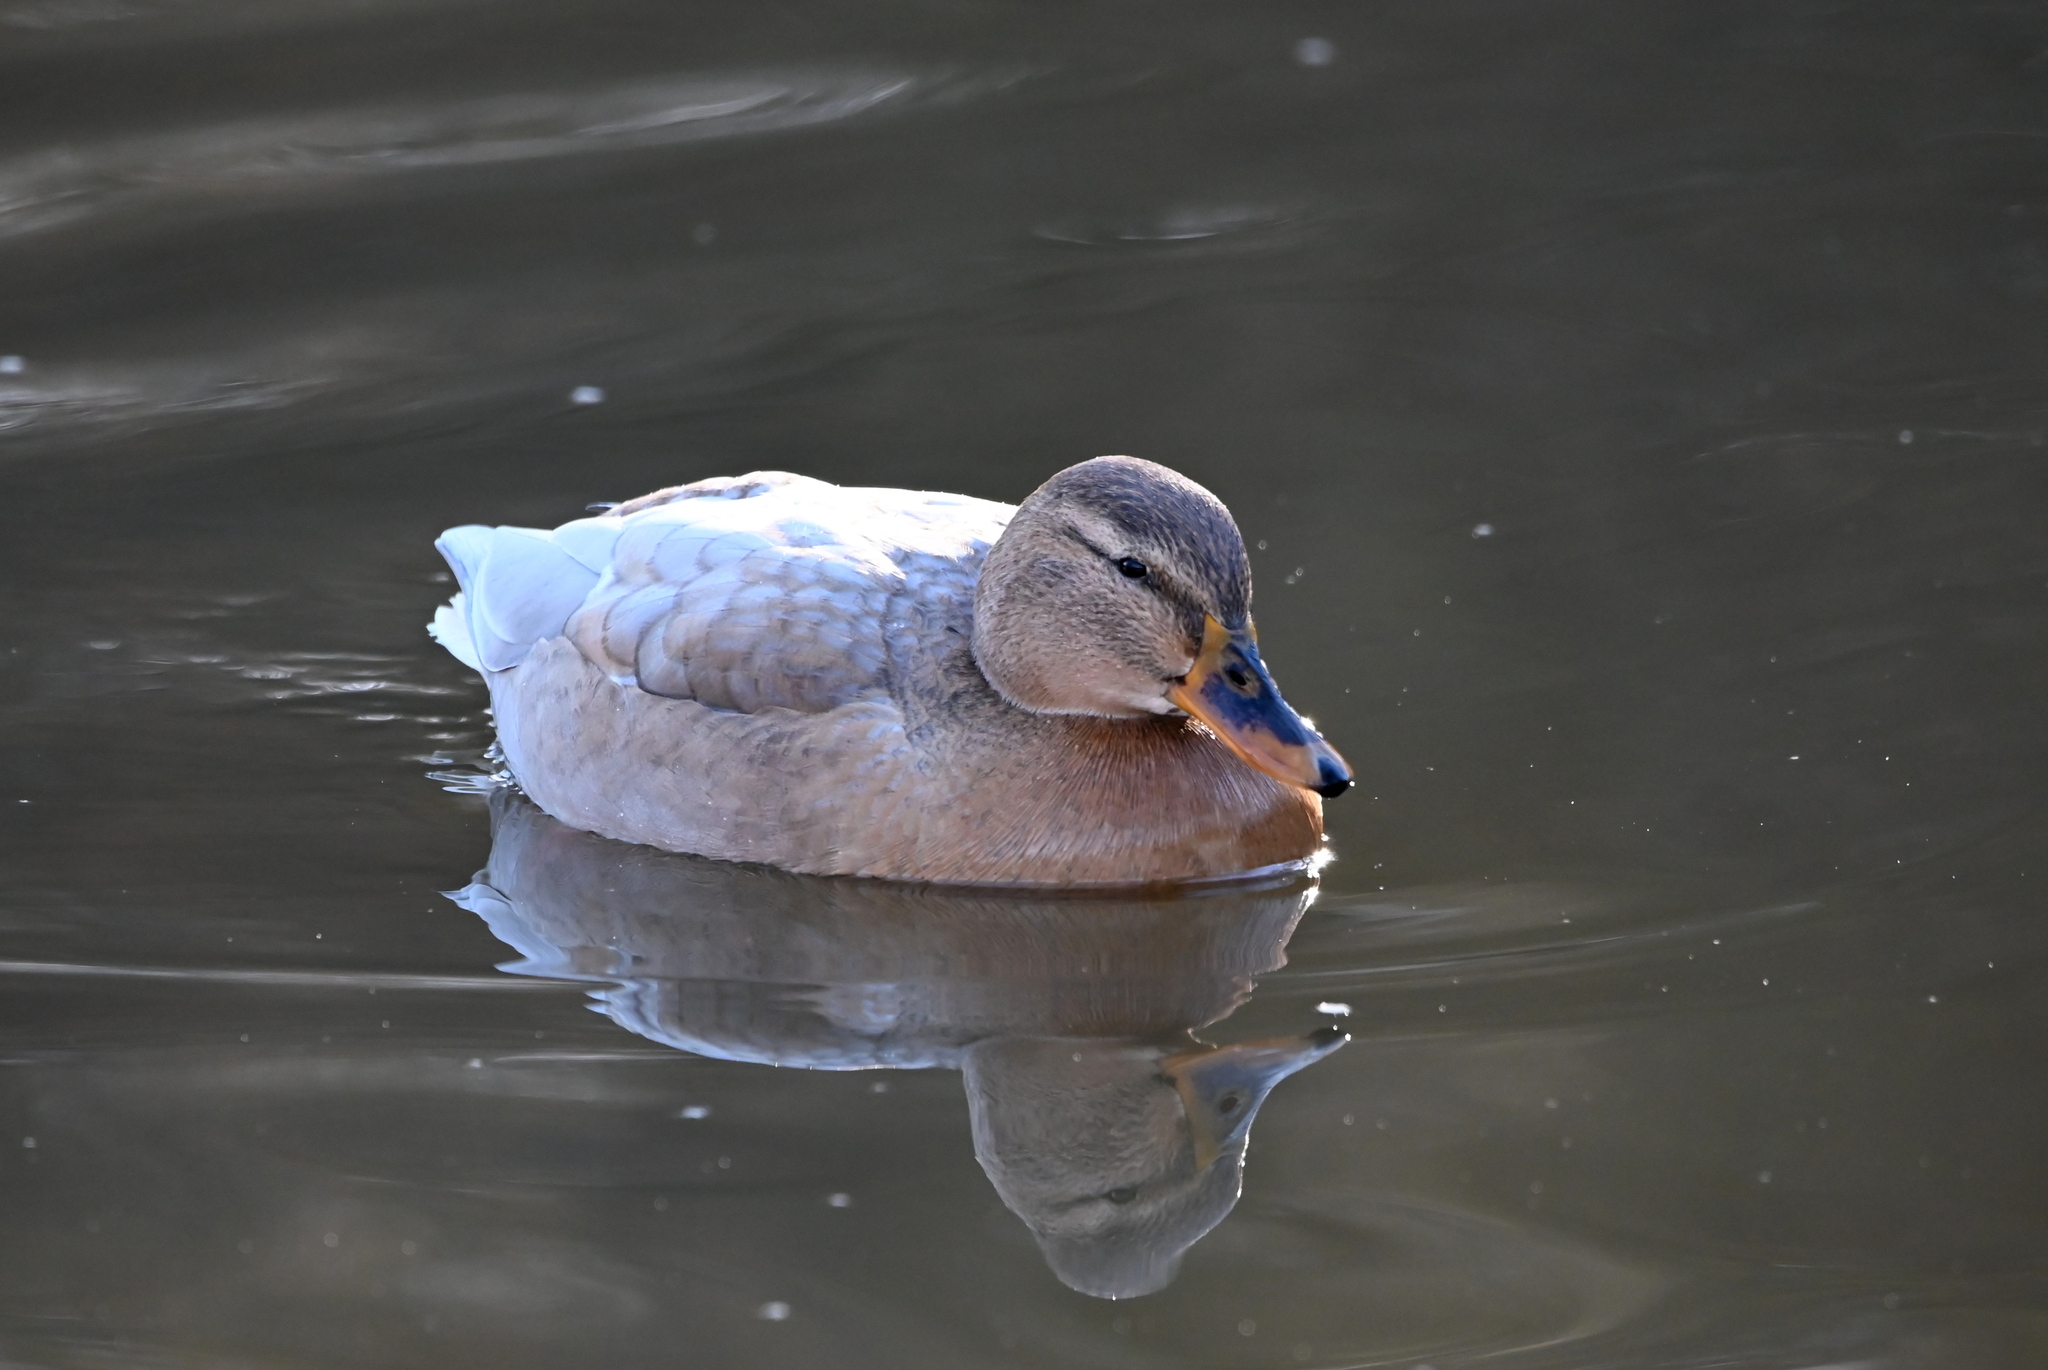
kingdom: Animalia
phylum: Chordata
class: Aves
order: Anseriformes
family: Anatidae
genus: Anas
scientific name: Anas platyrhynchos
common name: Mallard
